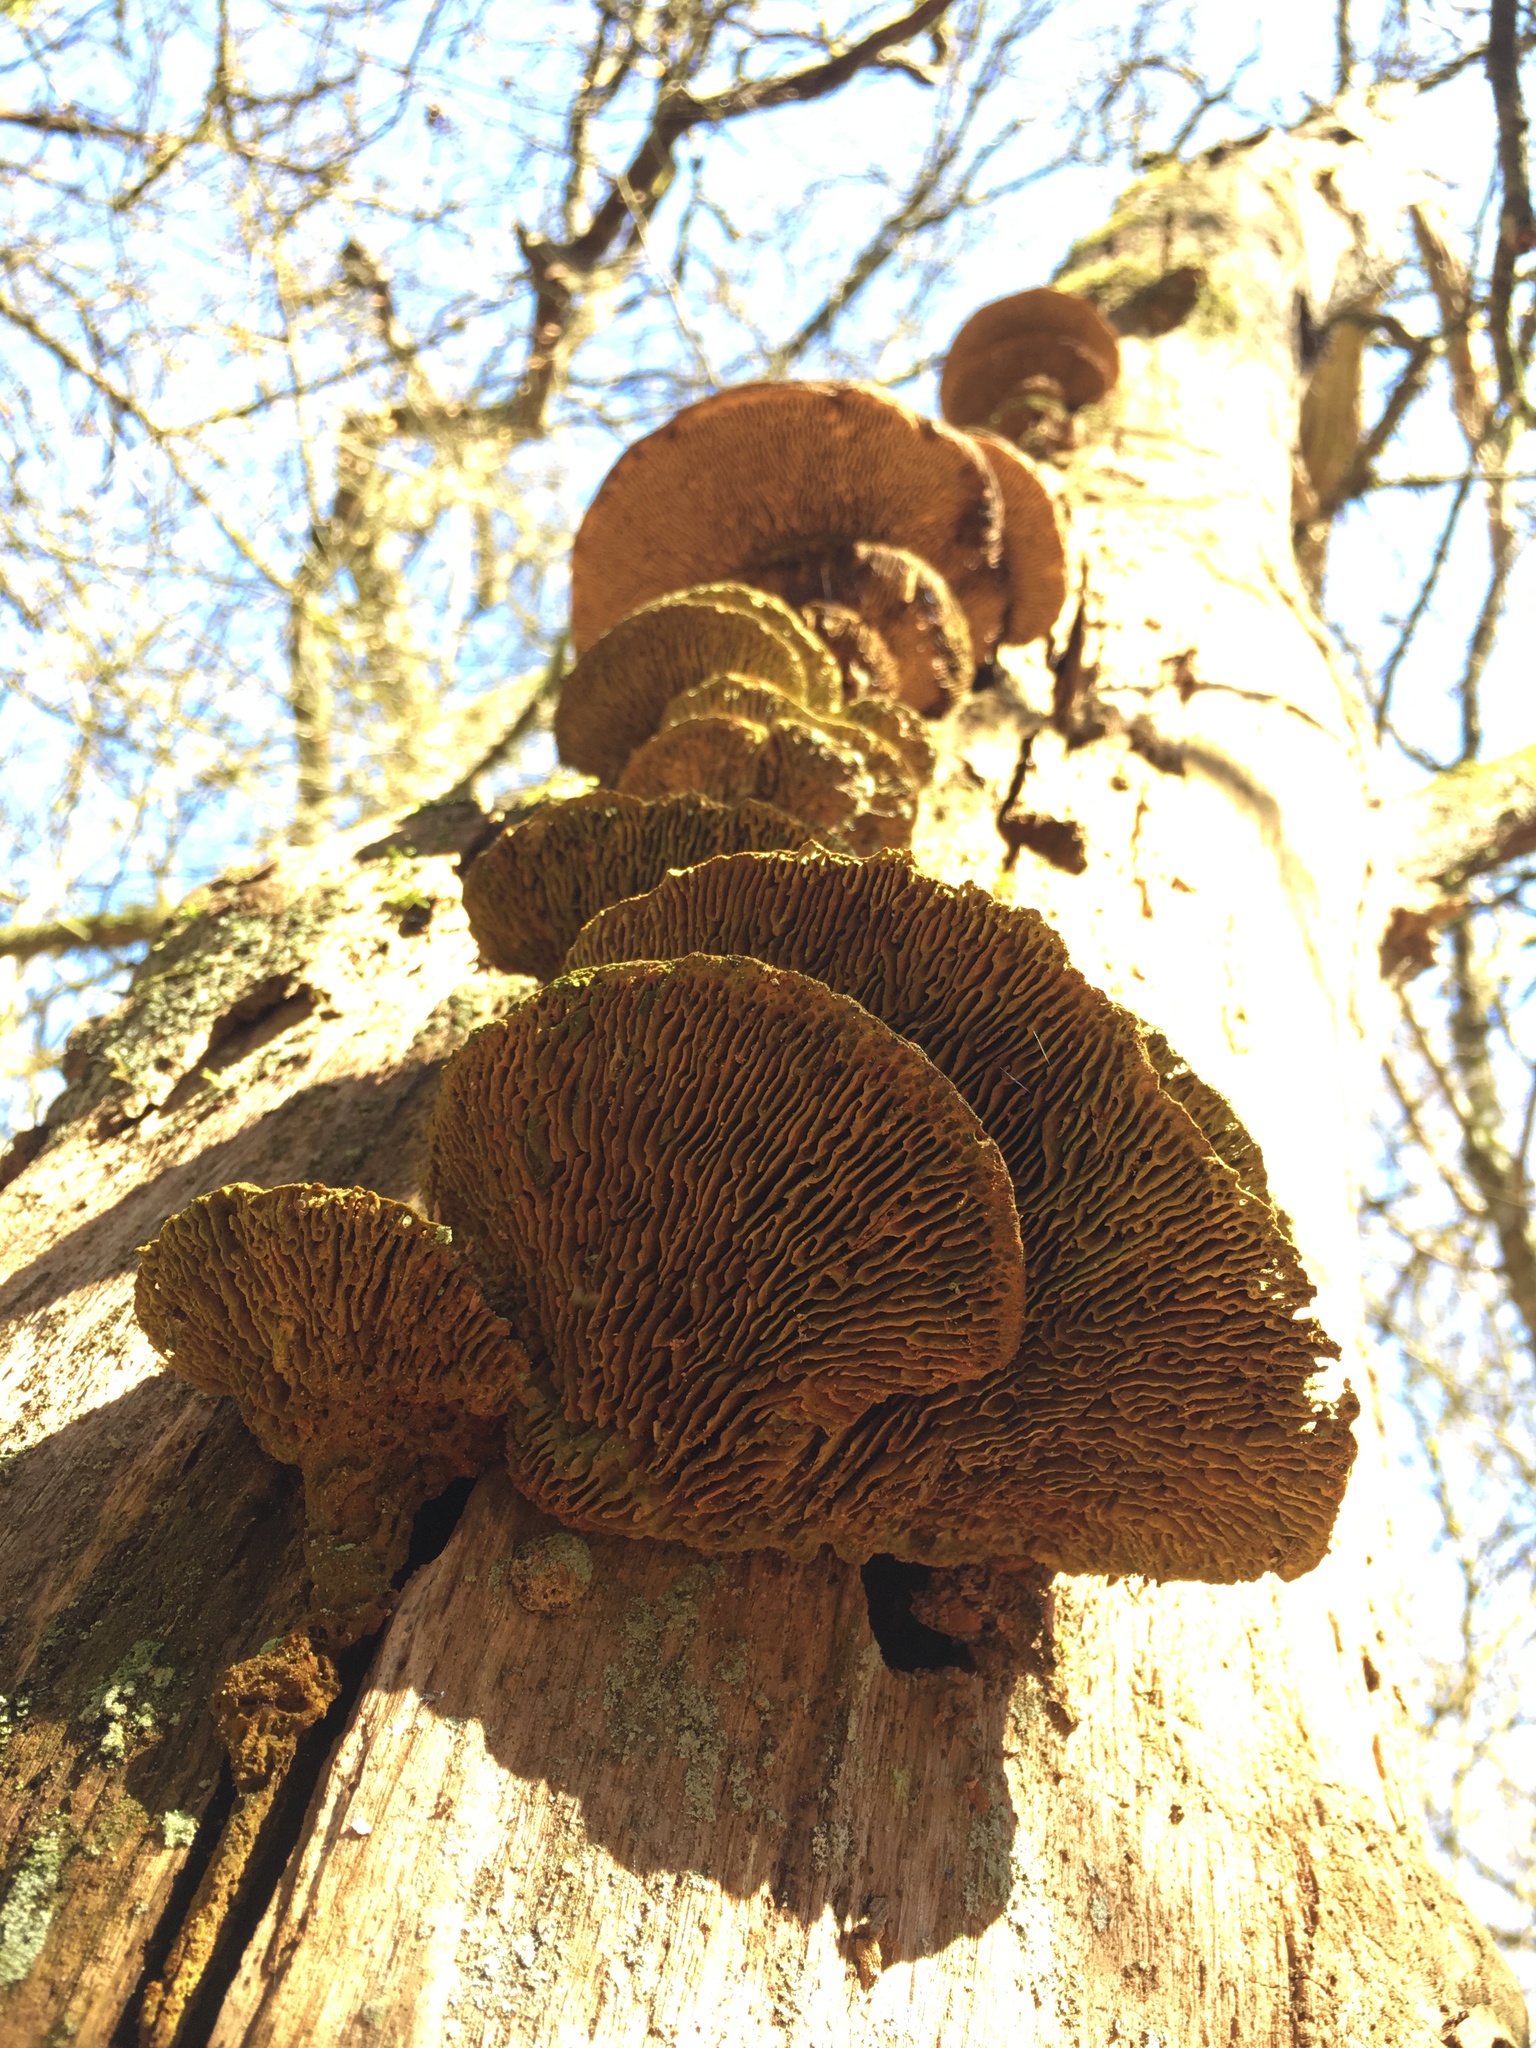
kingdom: Fungi
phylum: Basidiomycota
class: Agaricomycetes
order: Polyporales
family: Fomitopsidaceae
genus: Fomitopsis
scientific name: Fomitopsis
